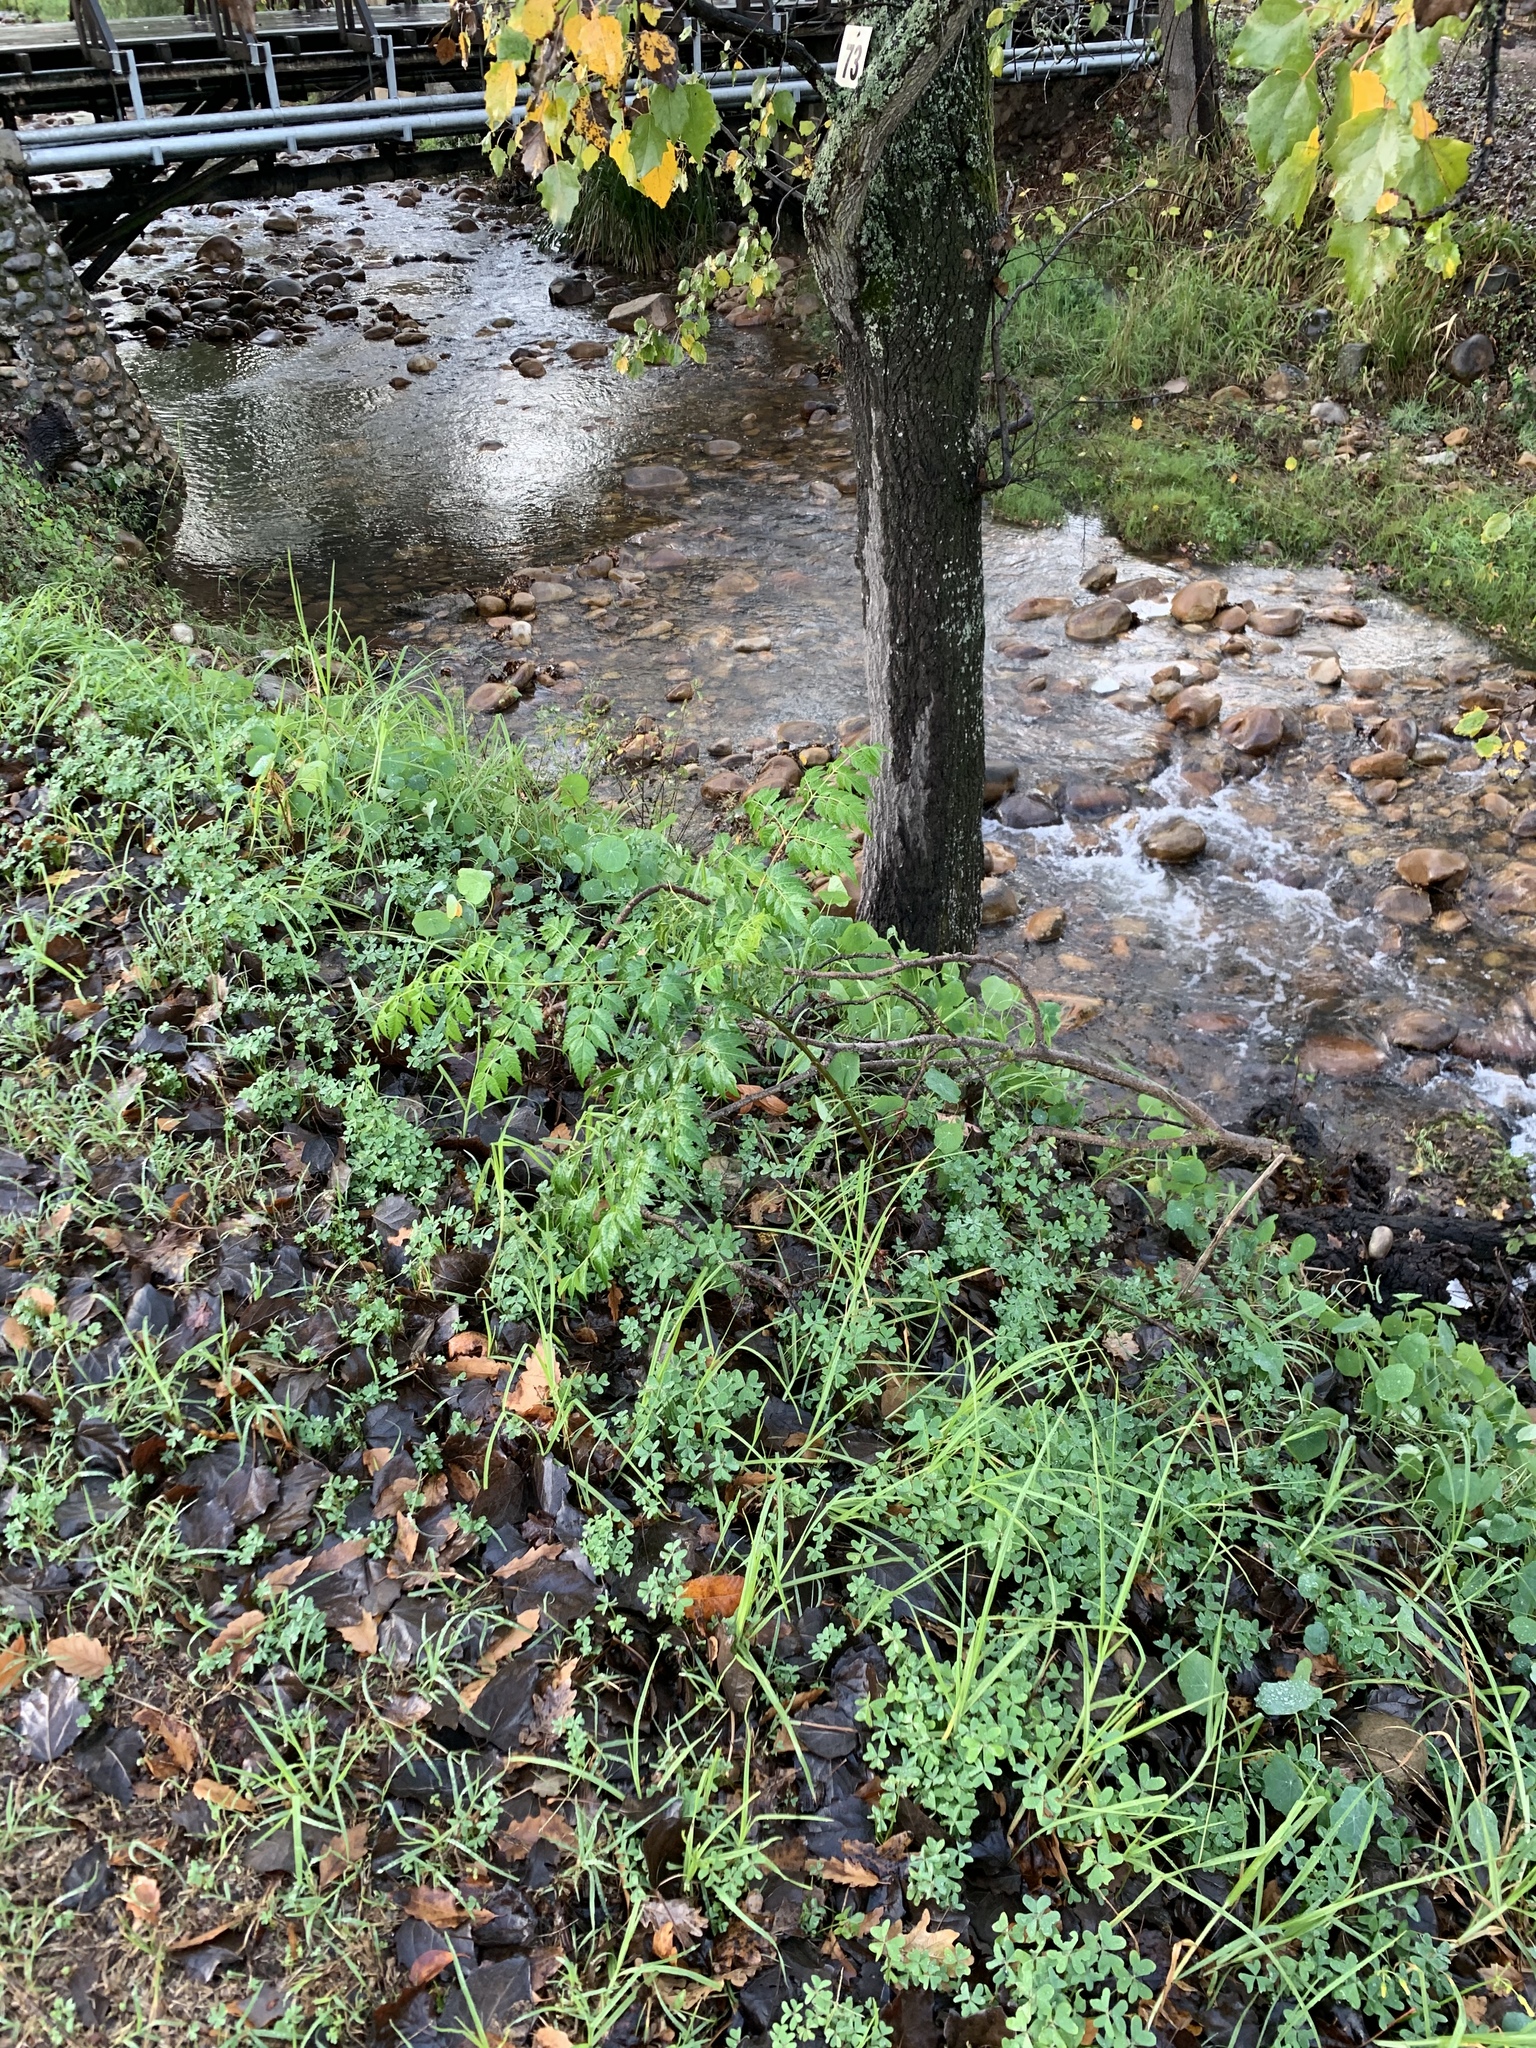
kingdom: Plantae
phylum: Tracheophyta
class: Magnoliopsida
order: Sapindales
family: Meliaceae
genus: Melia
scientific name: Melia azedarach
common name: Chinaberrytree
